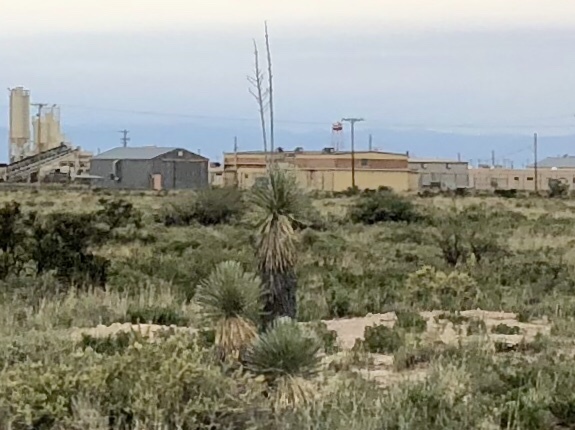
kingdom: Plantae
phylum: Tracheophyta
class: Liliopsida
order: Asparagales
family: Asparagaceae
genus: Yucca
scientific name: Yucca elata
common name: Palmella
